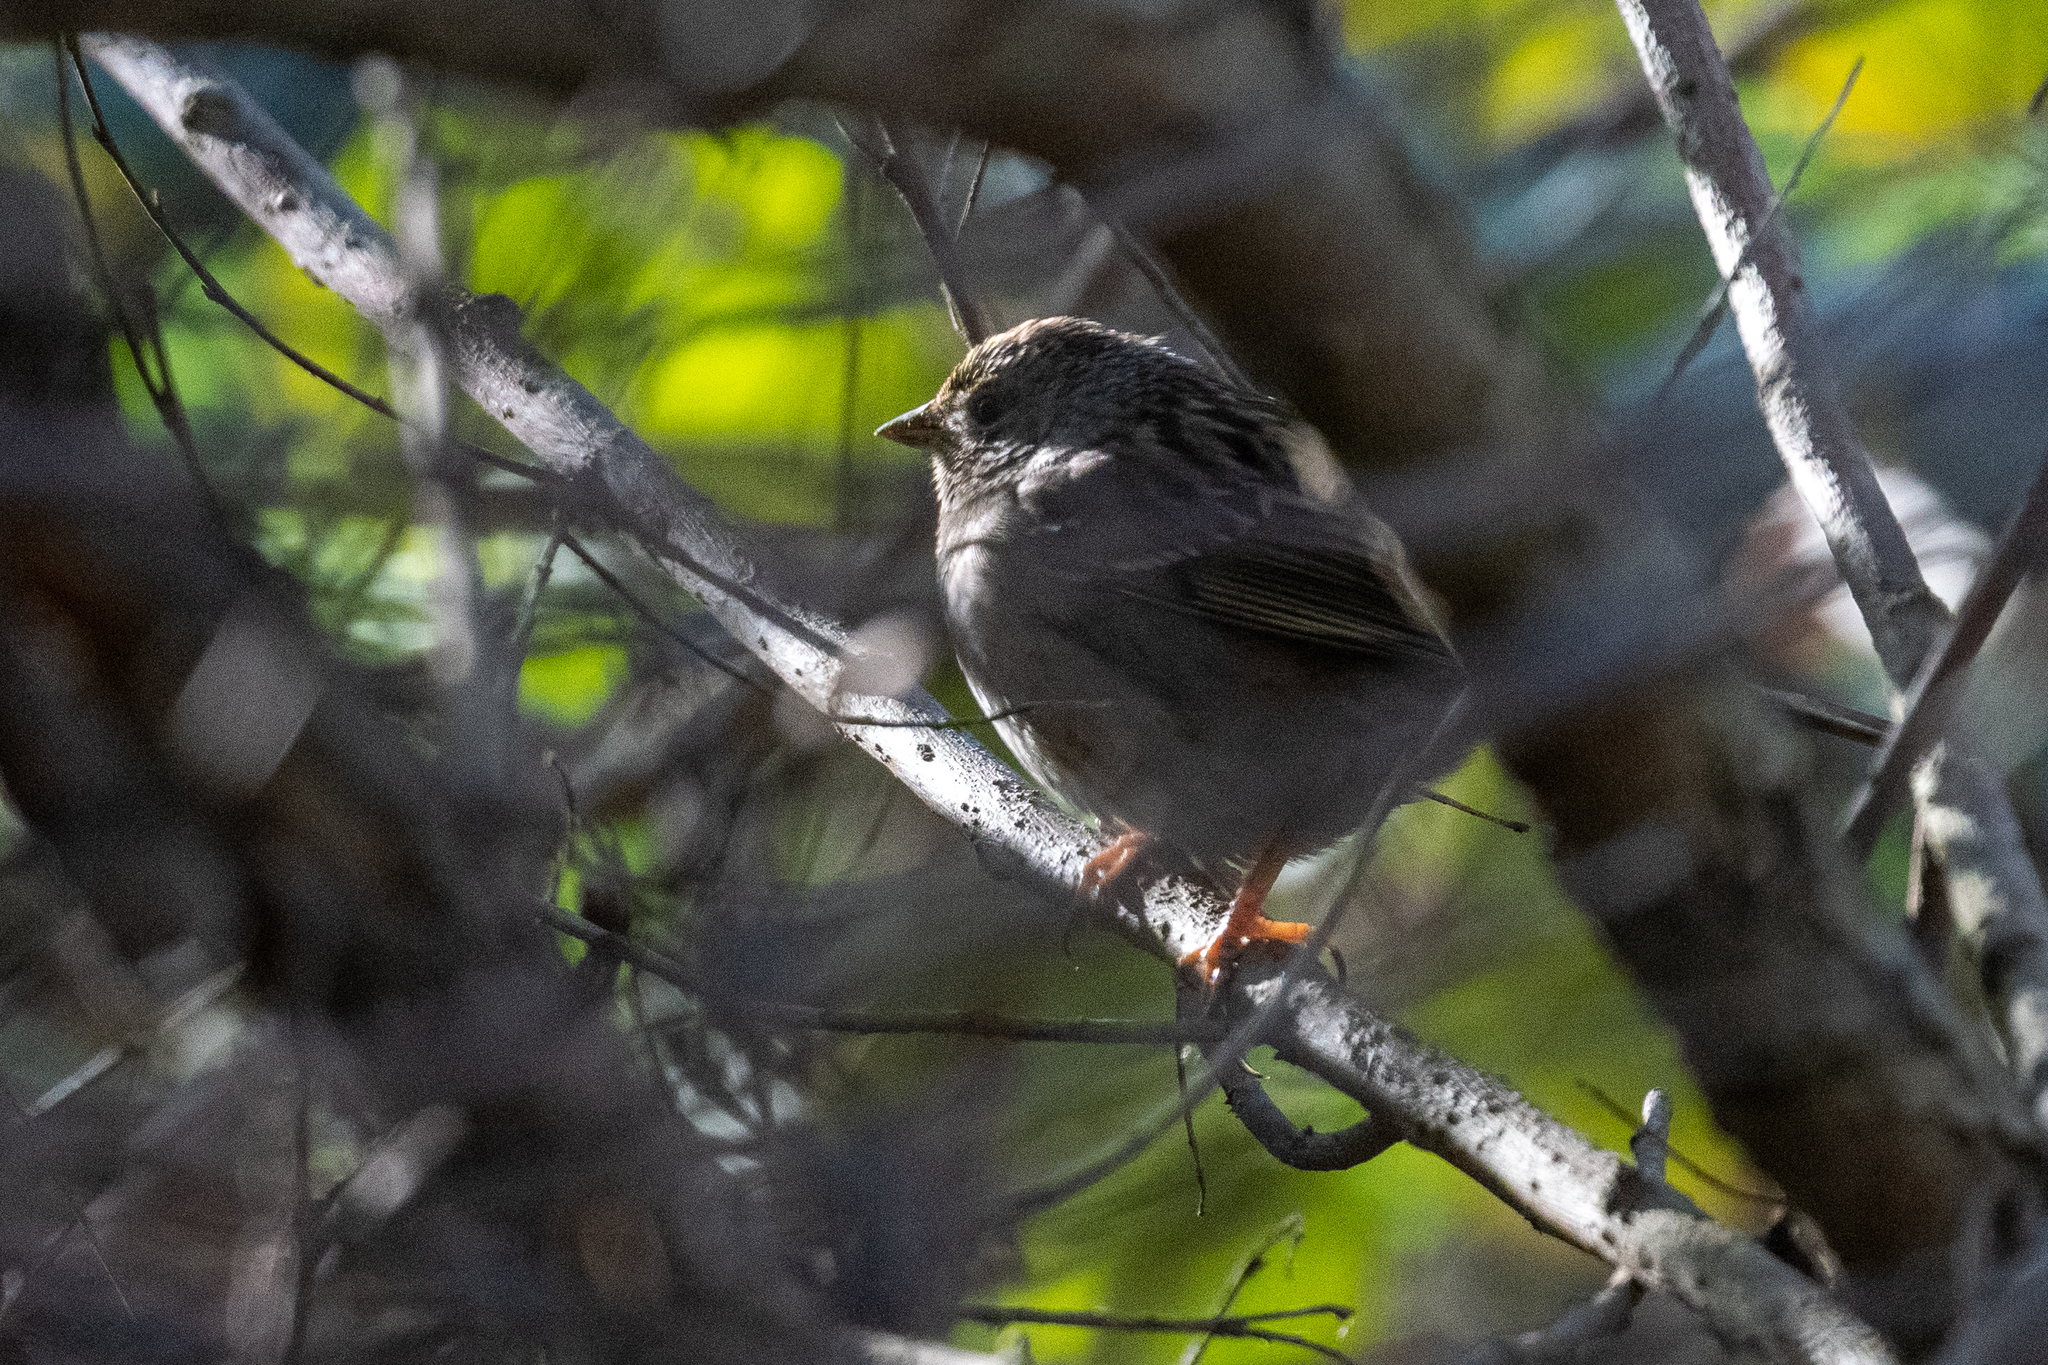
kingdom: Animalia
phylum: Chordata
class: Aves
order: Passeriformes
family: Passerellidae
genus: Zonotrichia
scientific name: Zonotrichia atricapilla
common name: Golden-crowned sparrow
